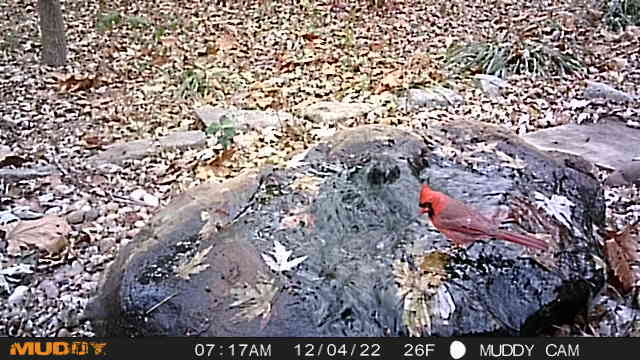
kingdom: Animalia
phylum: Chordata
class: Aves
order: Passeriformes
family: Cardinalidae
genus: Cardinalis
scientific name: Cardinalis cardinalis
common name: Northern cardinal
